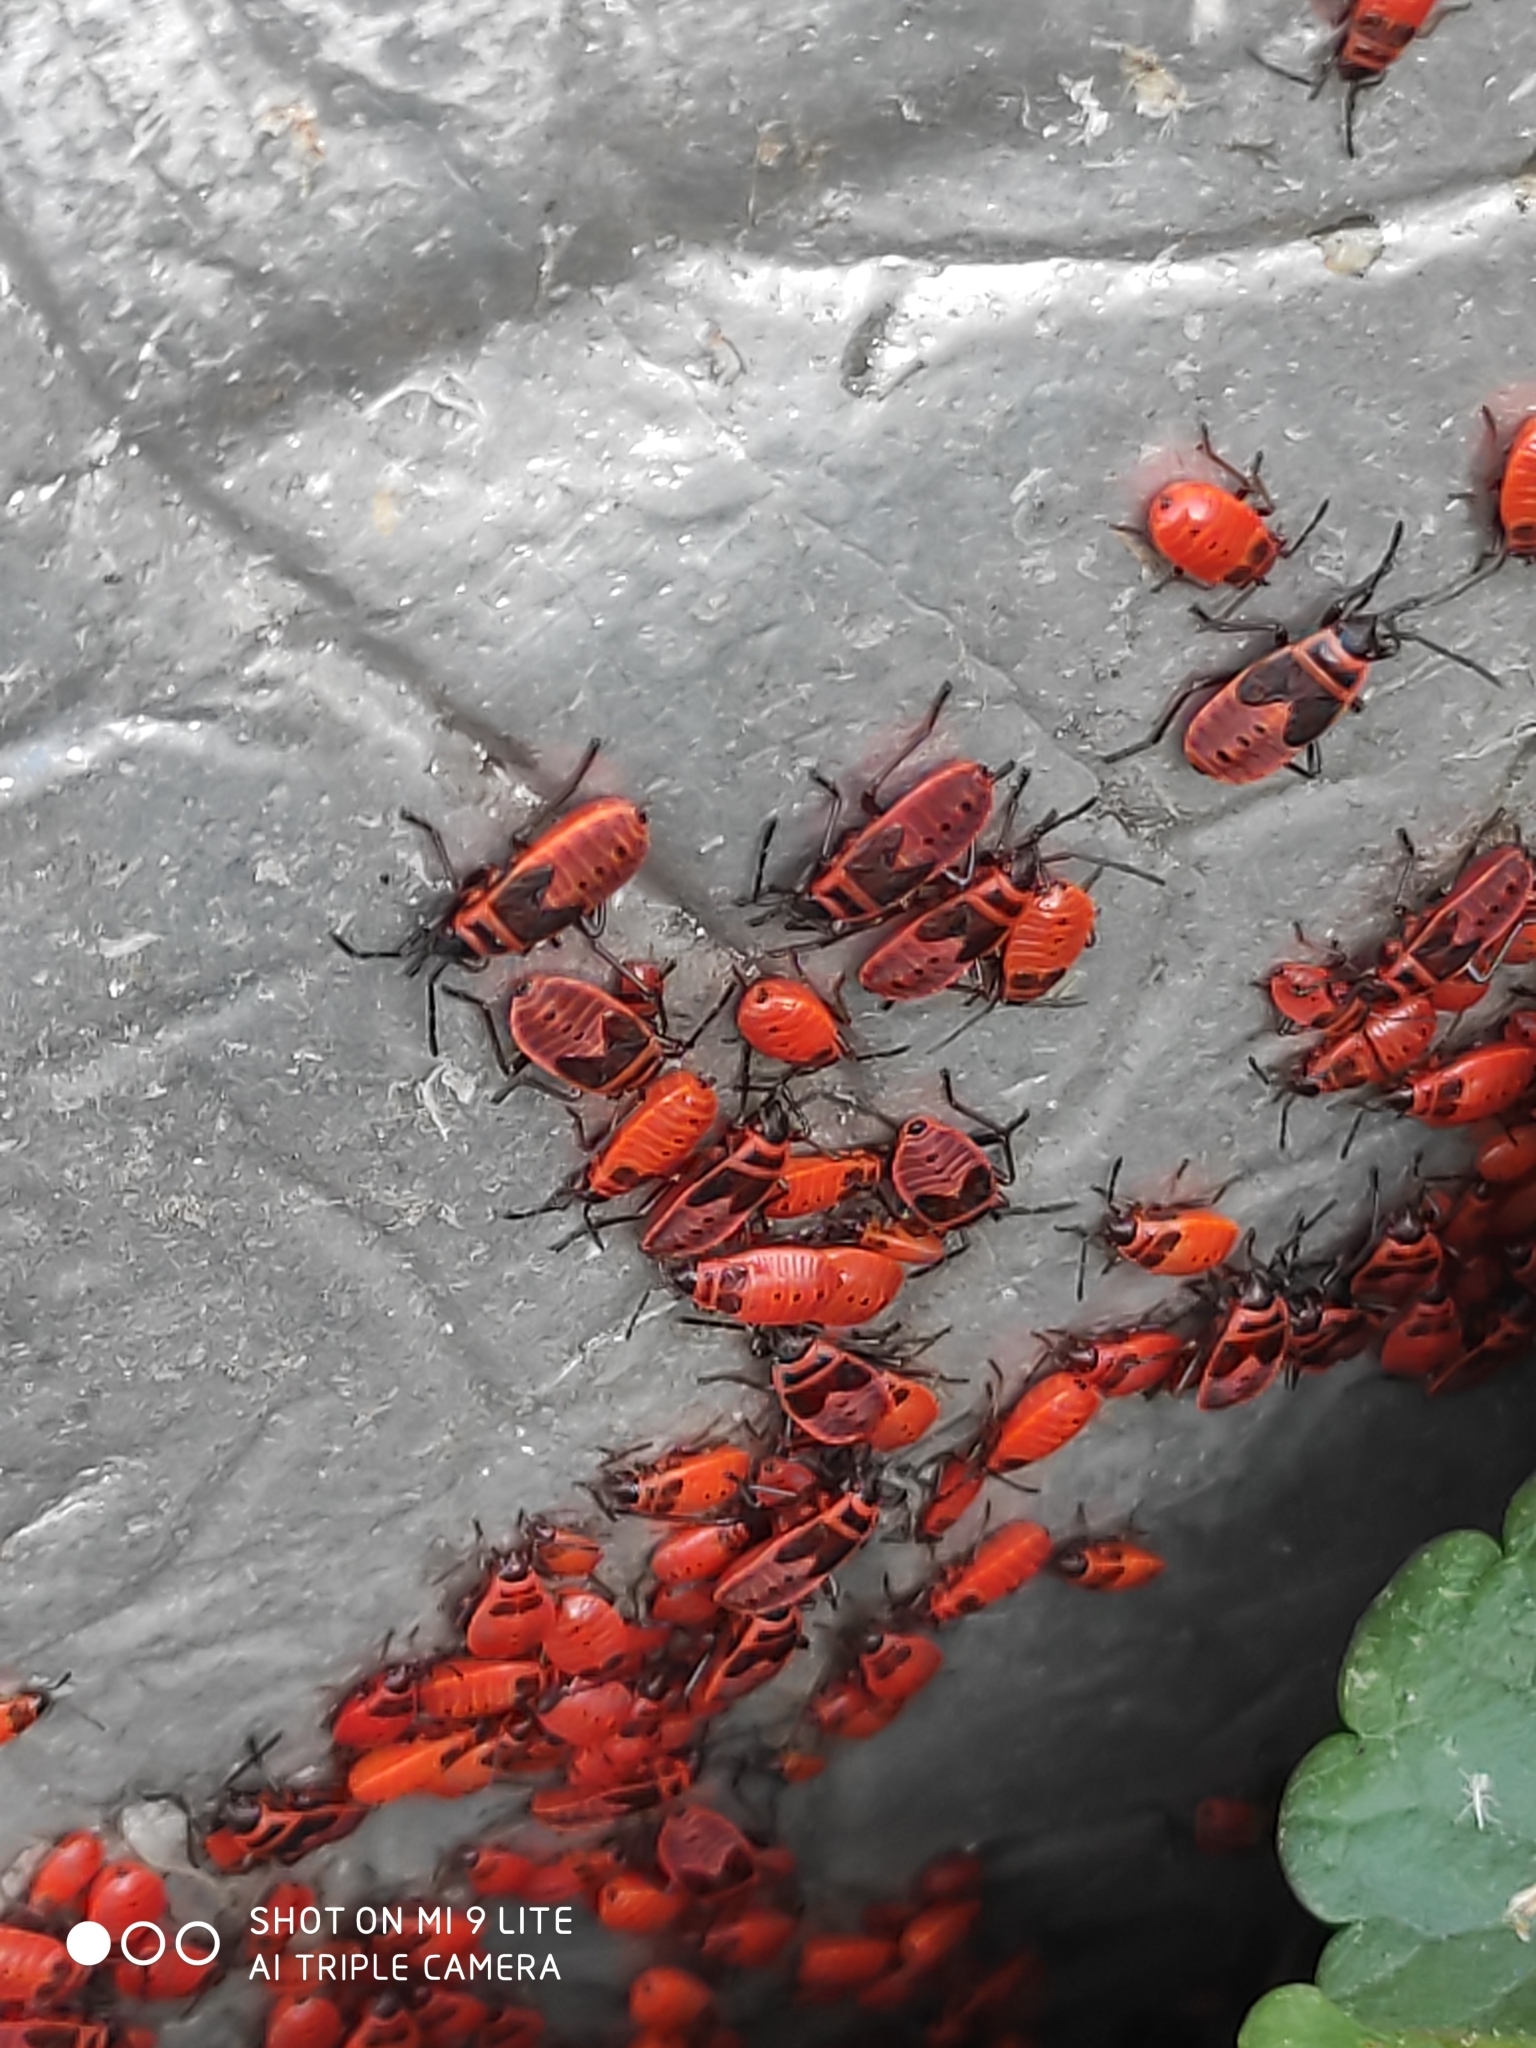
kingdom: Animalia
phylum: Arthropoda
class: Insecta
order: Hemiptera
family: Pyrrhocoridae
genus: Pyrrhocoris
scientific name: Pyrrhocoris apterus
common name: Firebug
